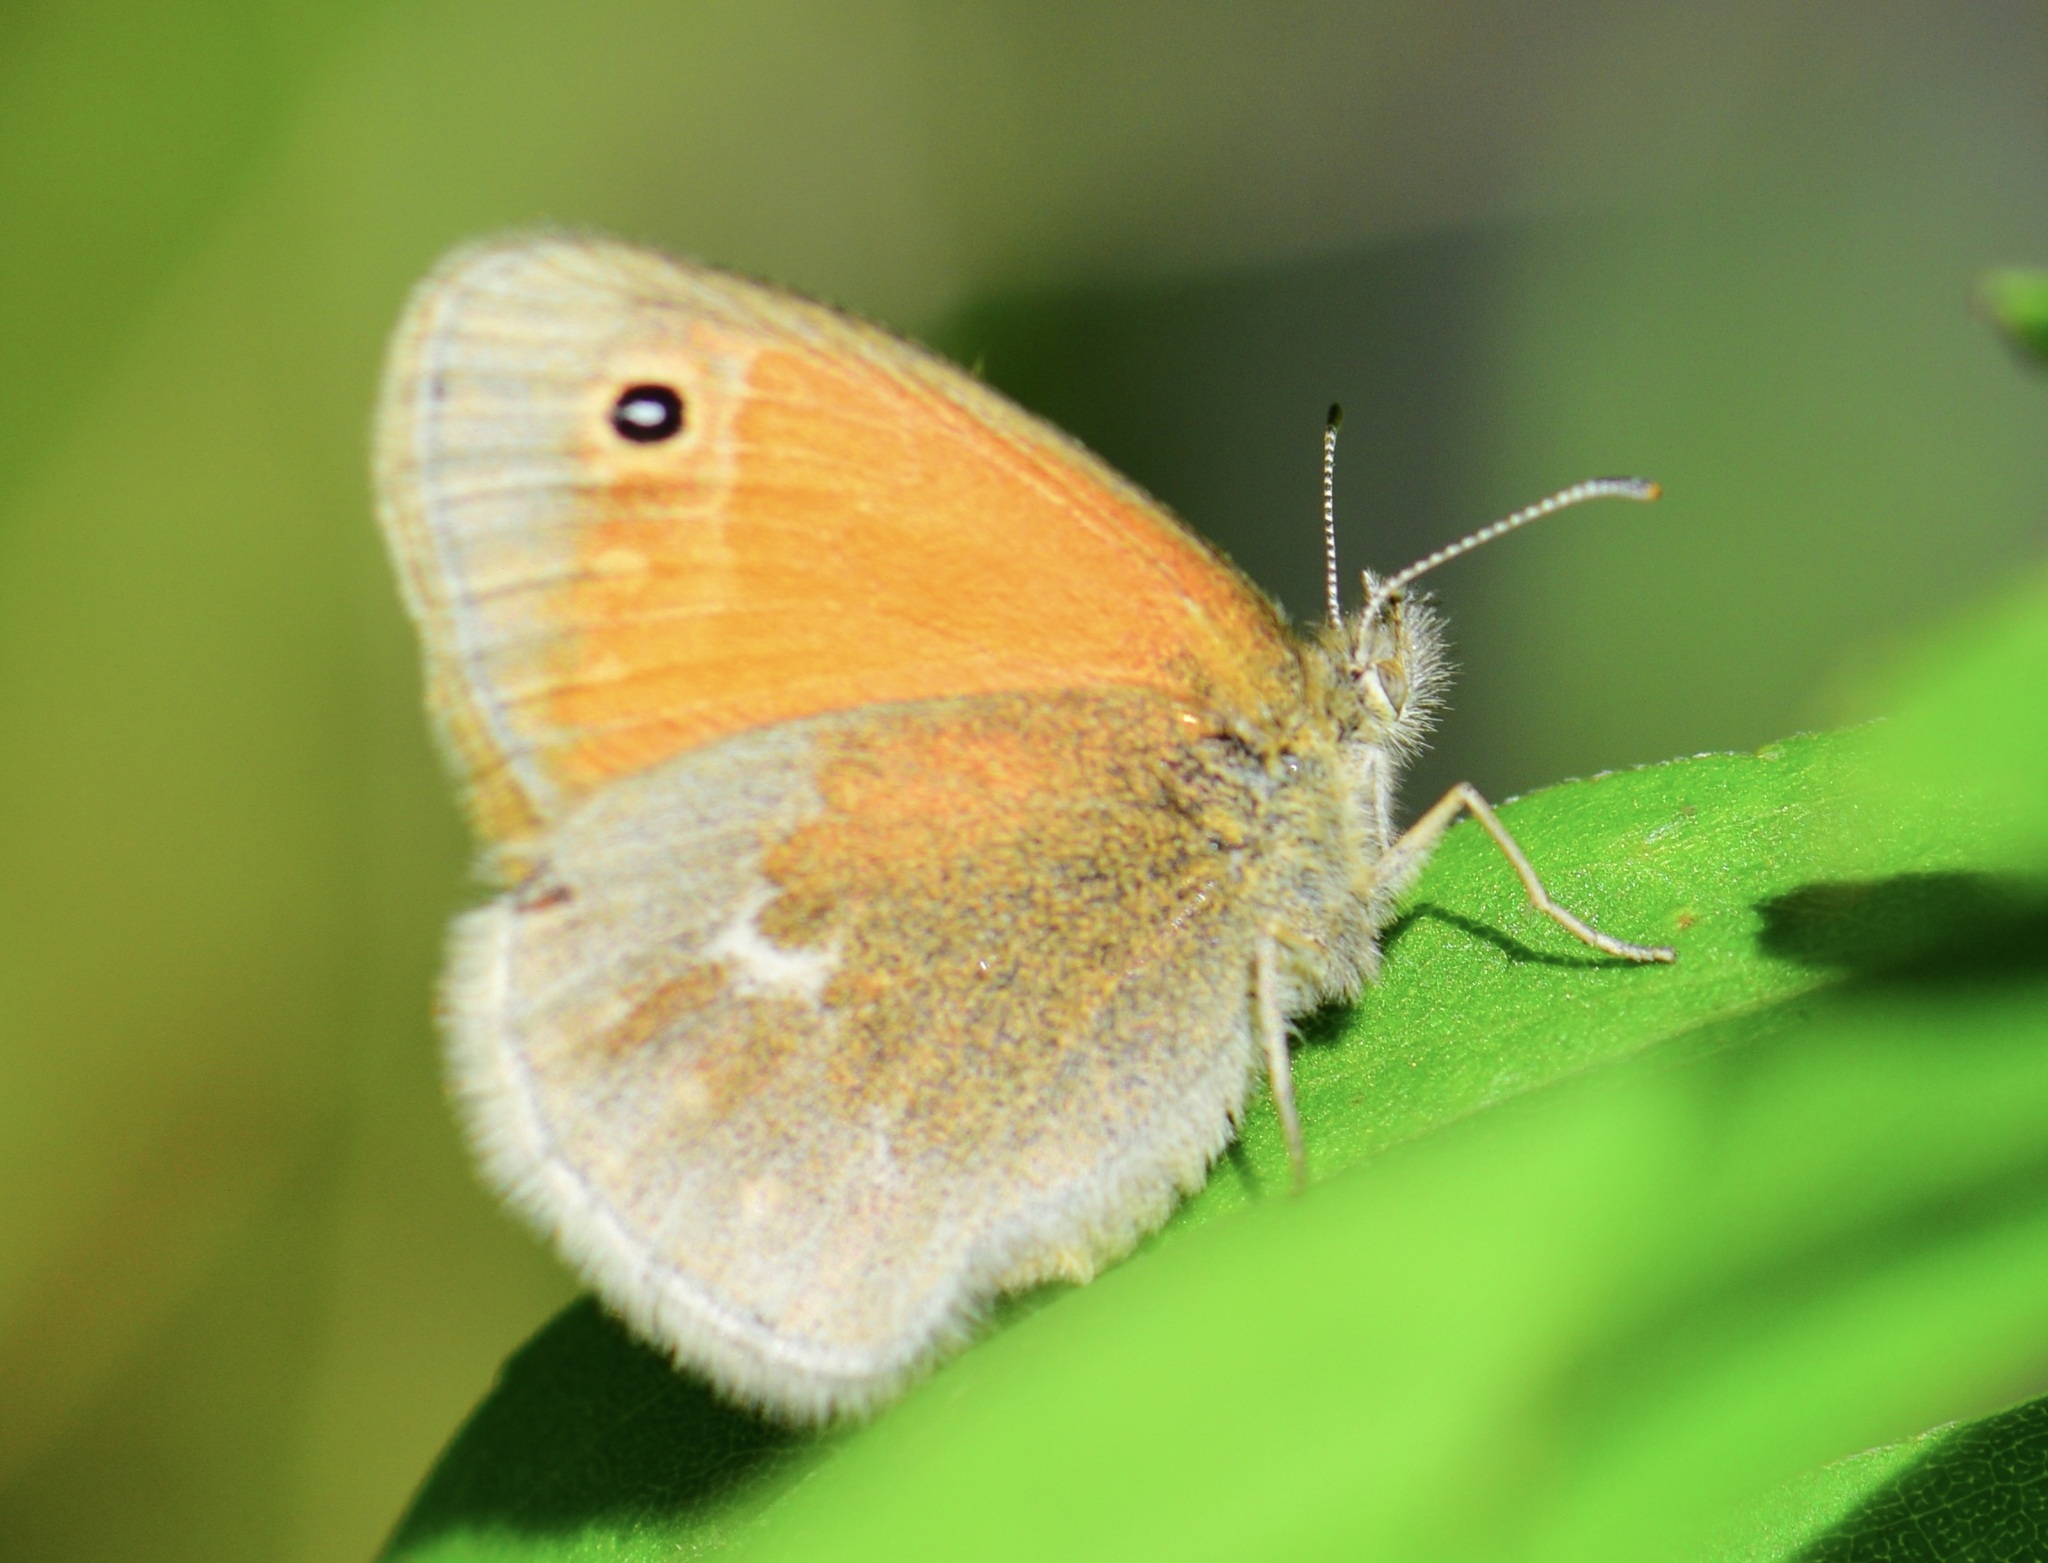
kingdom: Animalia
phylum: Arthropoda
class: Insecta
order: Lepidoptera
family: Nymphalidae
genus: Coenonympha
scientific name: Coenonympha california
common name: Common ringlet
